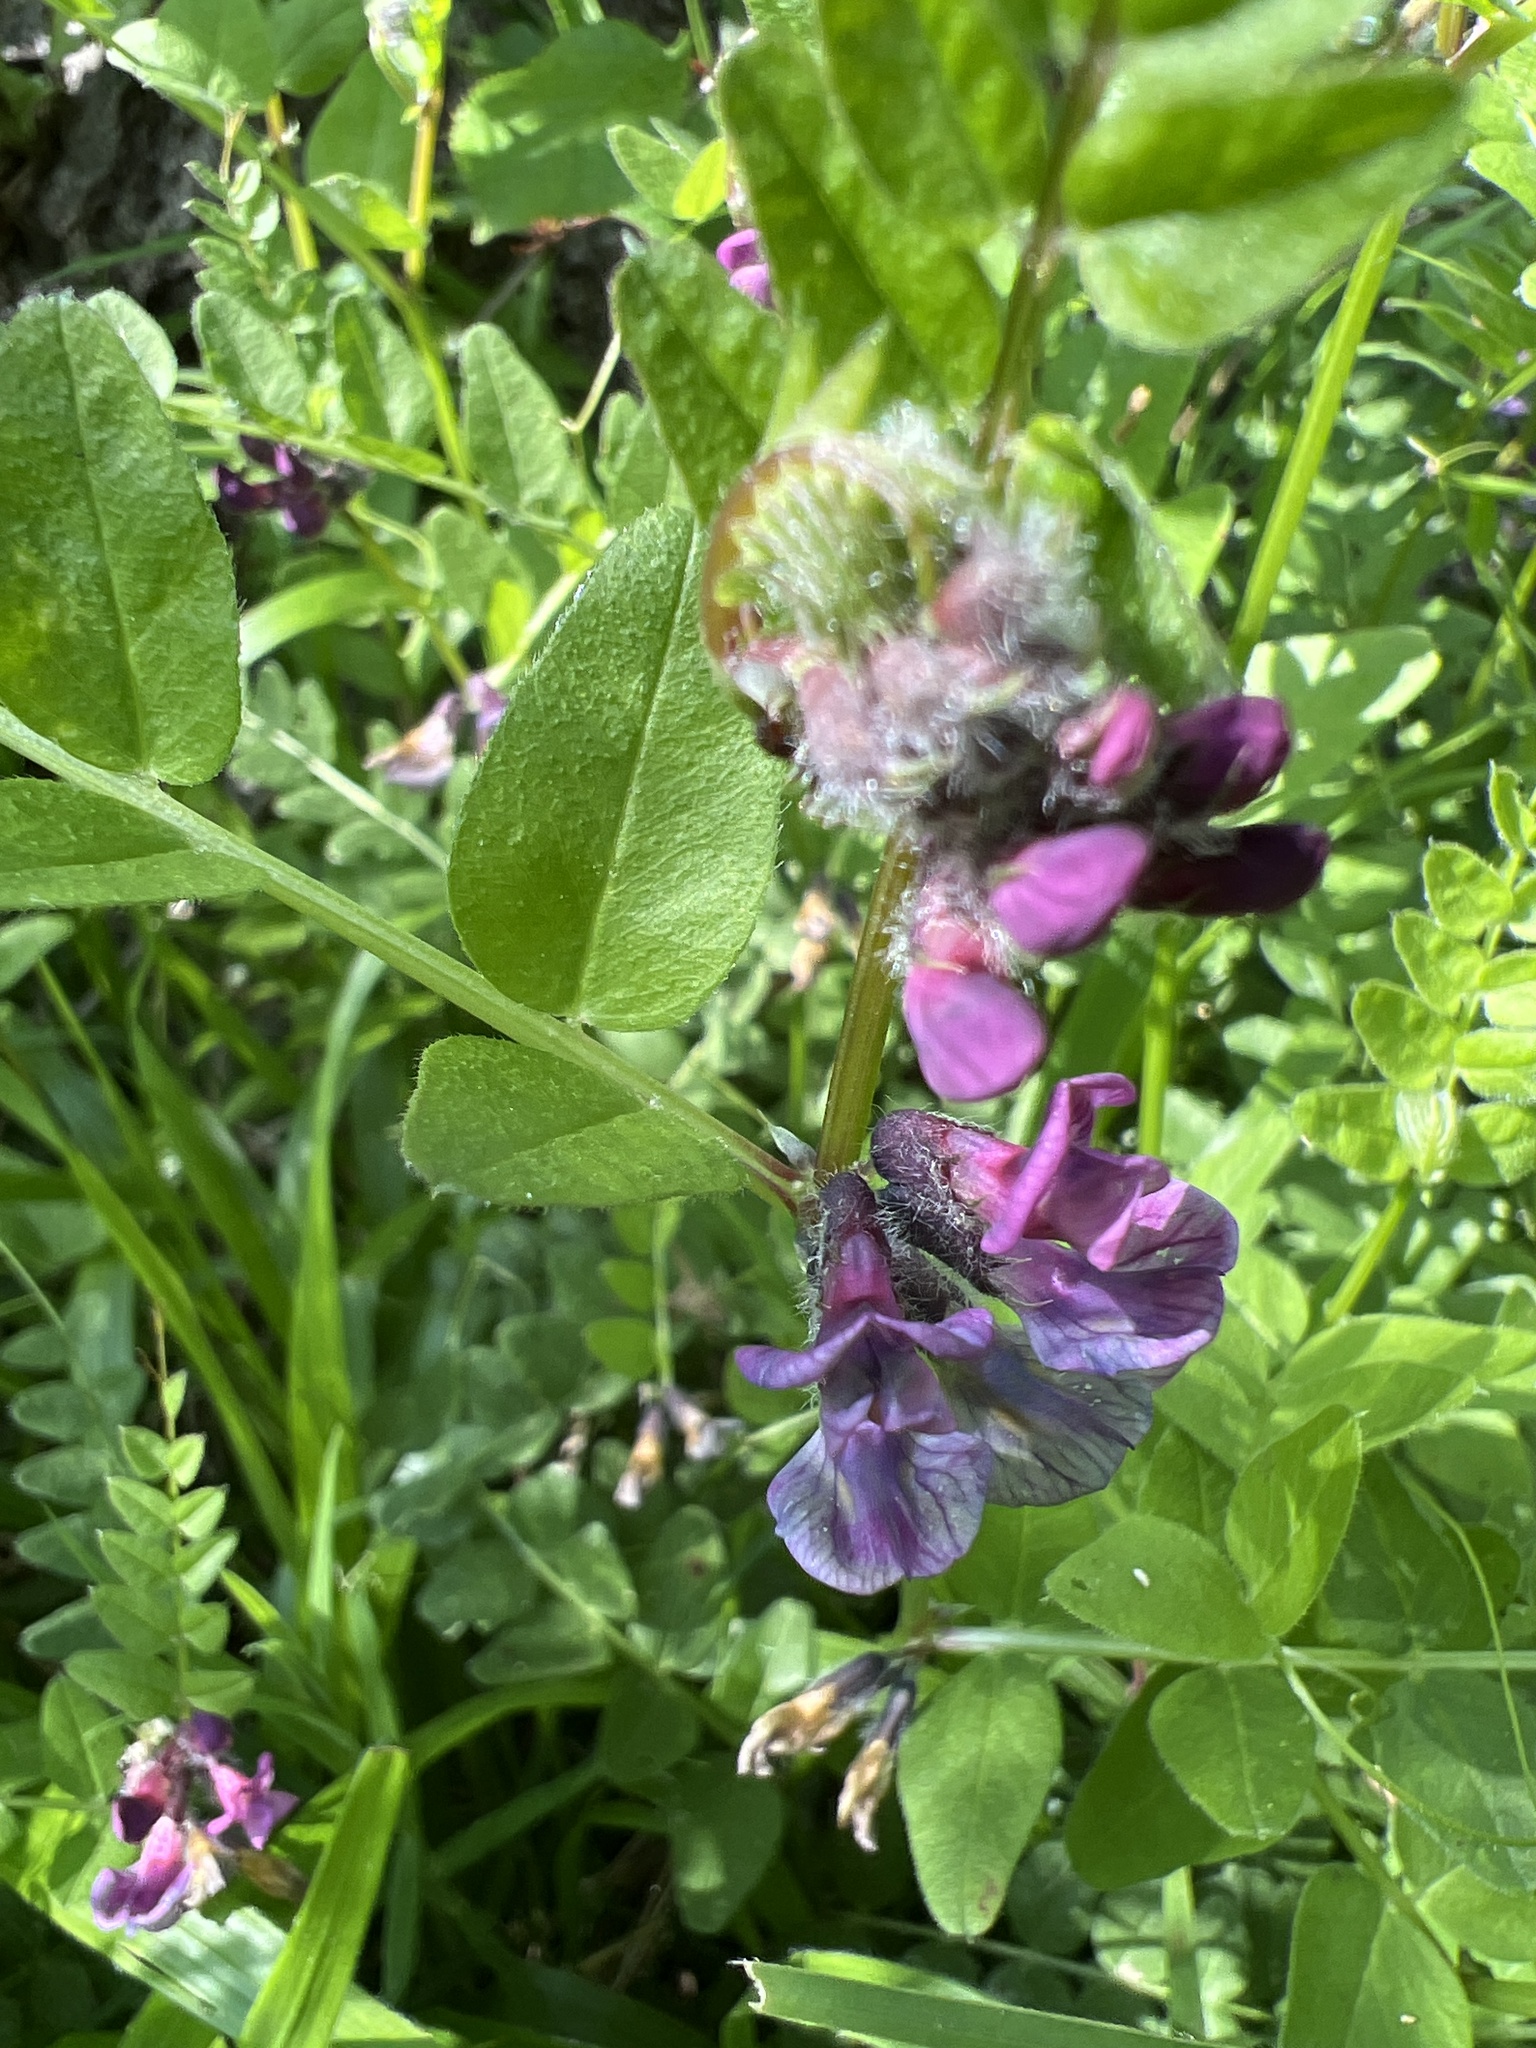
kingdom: Plantae
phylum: Tracheophyta
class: Magnoliopsida
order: Fabales
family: Fabaceae
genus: Vicia
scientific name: Vicia sepium
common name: Bush vetch
